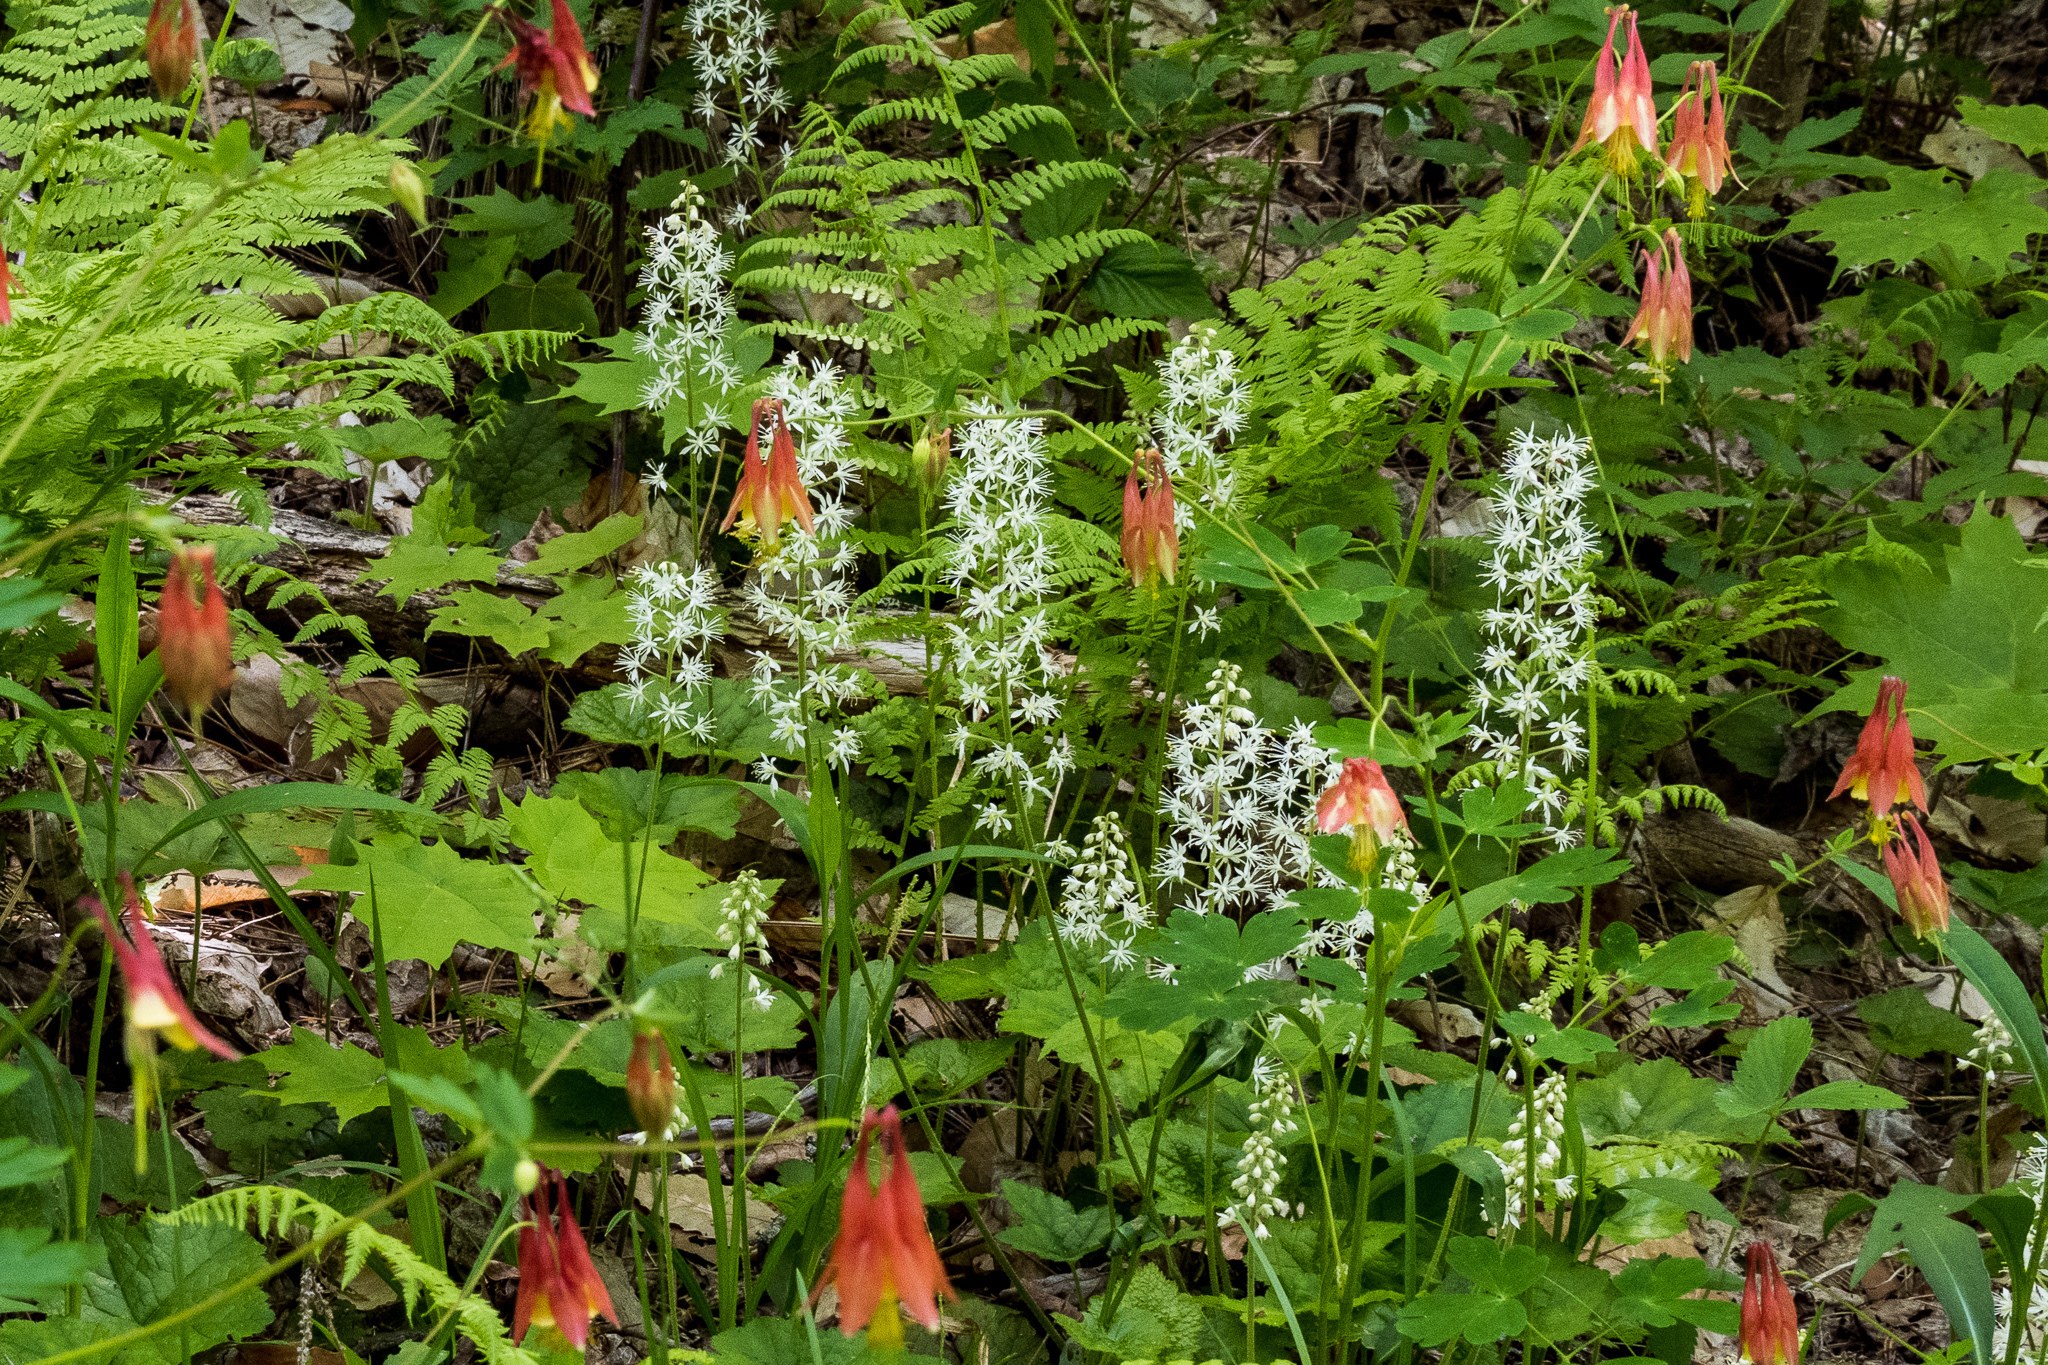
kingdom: Plantae
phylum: Tracheophyta
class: Magnoliopsida
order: Ranunculales
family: Ranunculaceae
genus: Aquilegia
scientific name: Aquilegia canadensis
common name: American columbine
